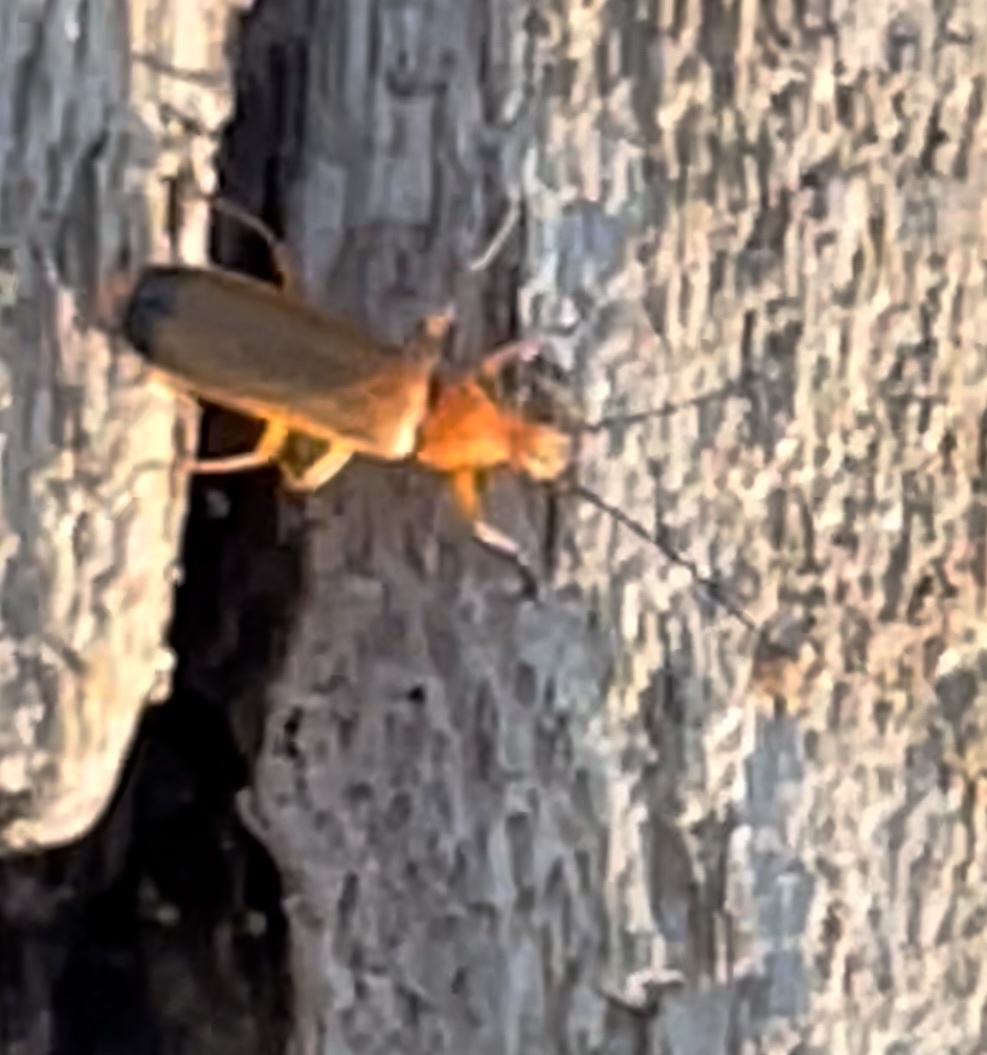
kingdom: Animalia
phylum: Arthropoda
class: Insecta
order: Coleoptera
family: Cantharidae
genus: Rhagonycha
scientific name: Rhagonycha fulva
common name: Common red soldier beetle
